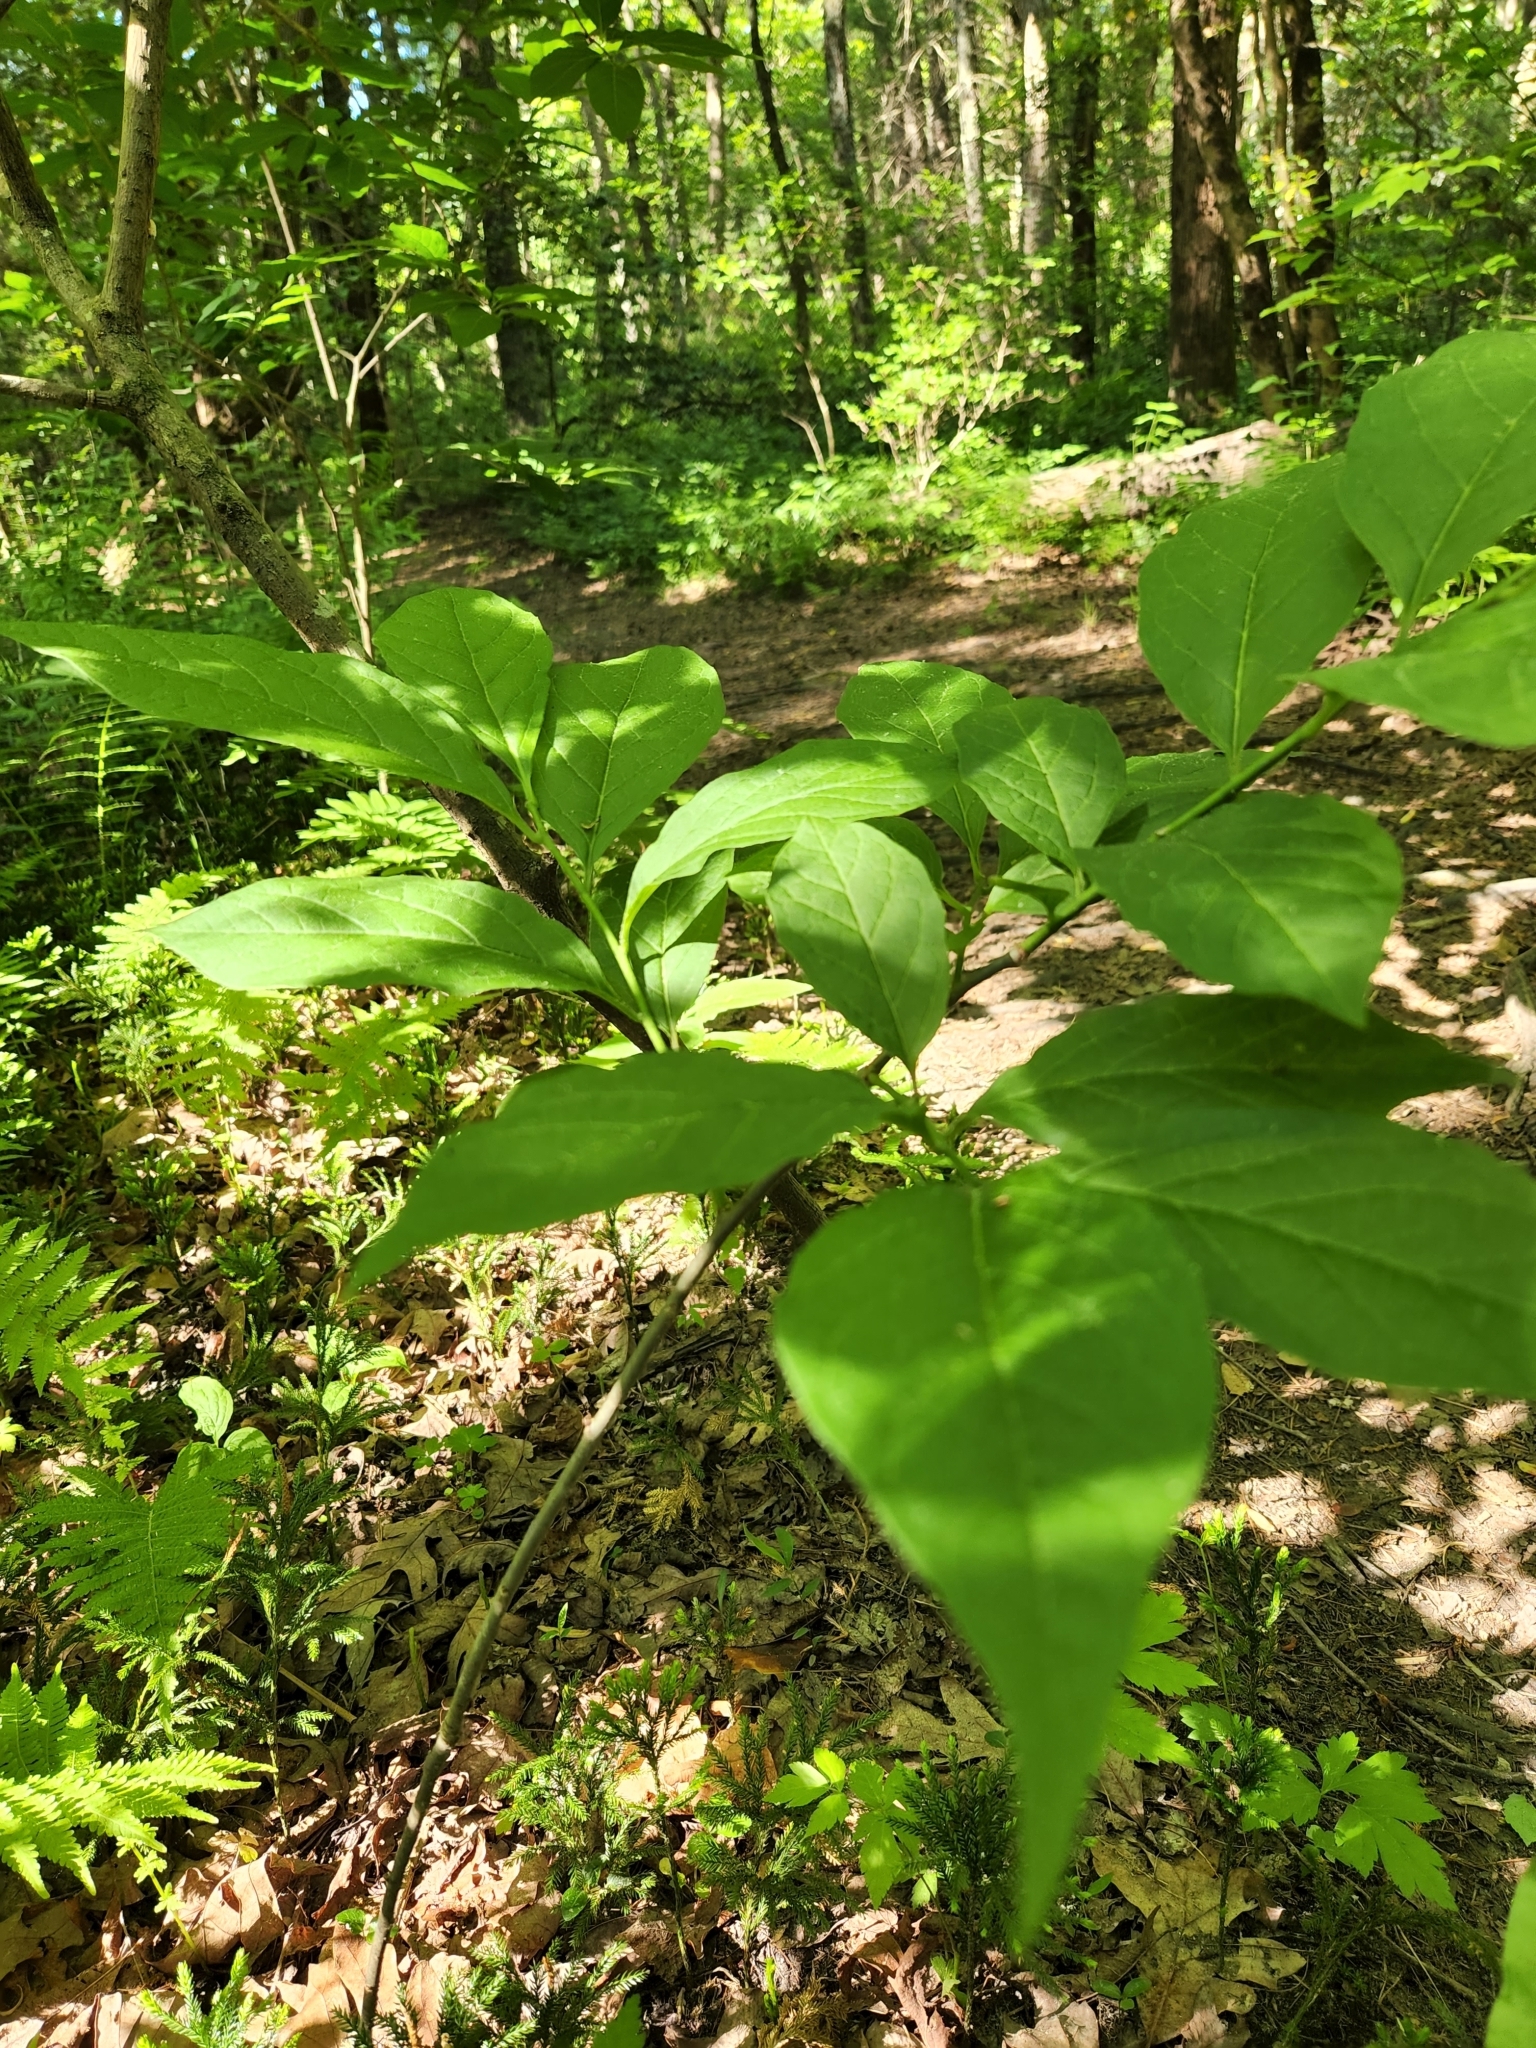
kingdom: Plantae
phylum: Tracheophyta
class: Magnoliopsida
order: Santalales
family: Cervantesiaceae
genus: Pyrularia
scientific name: Pyrularia pubera
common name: Oilnut
